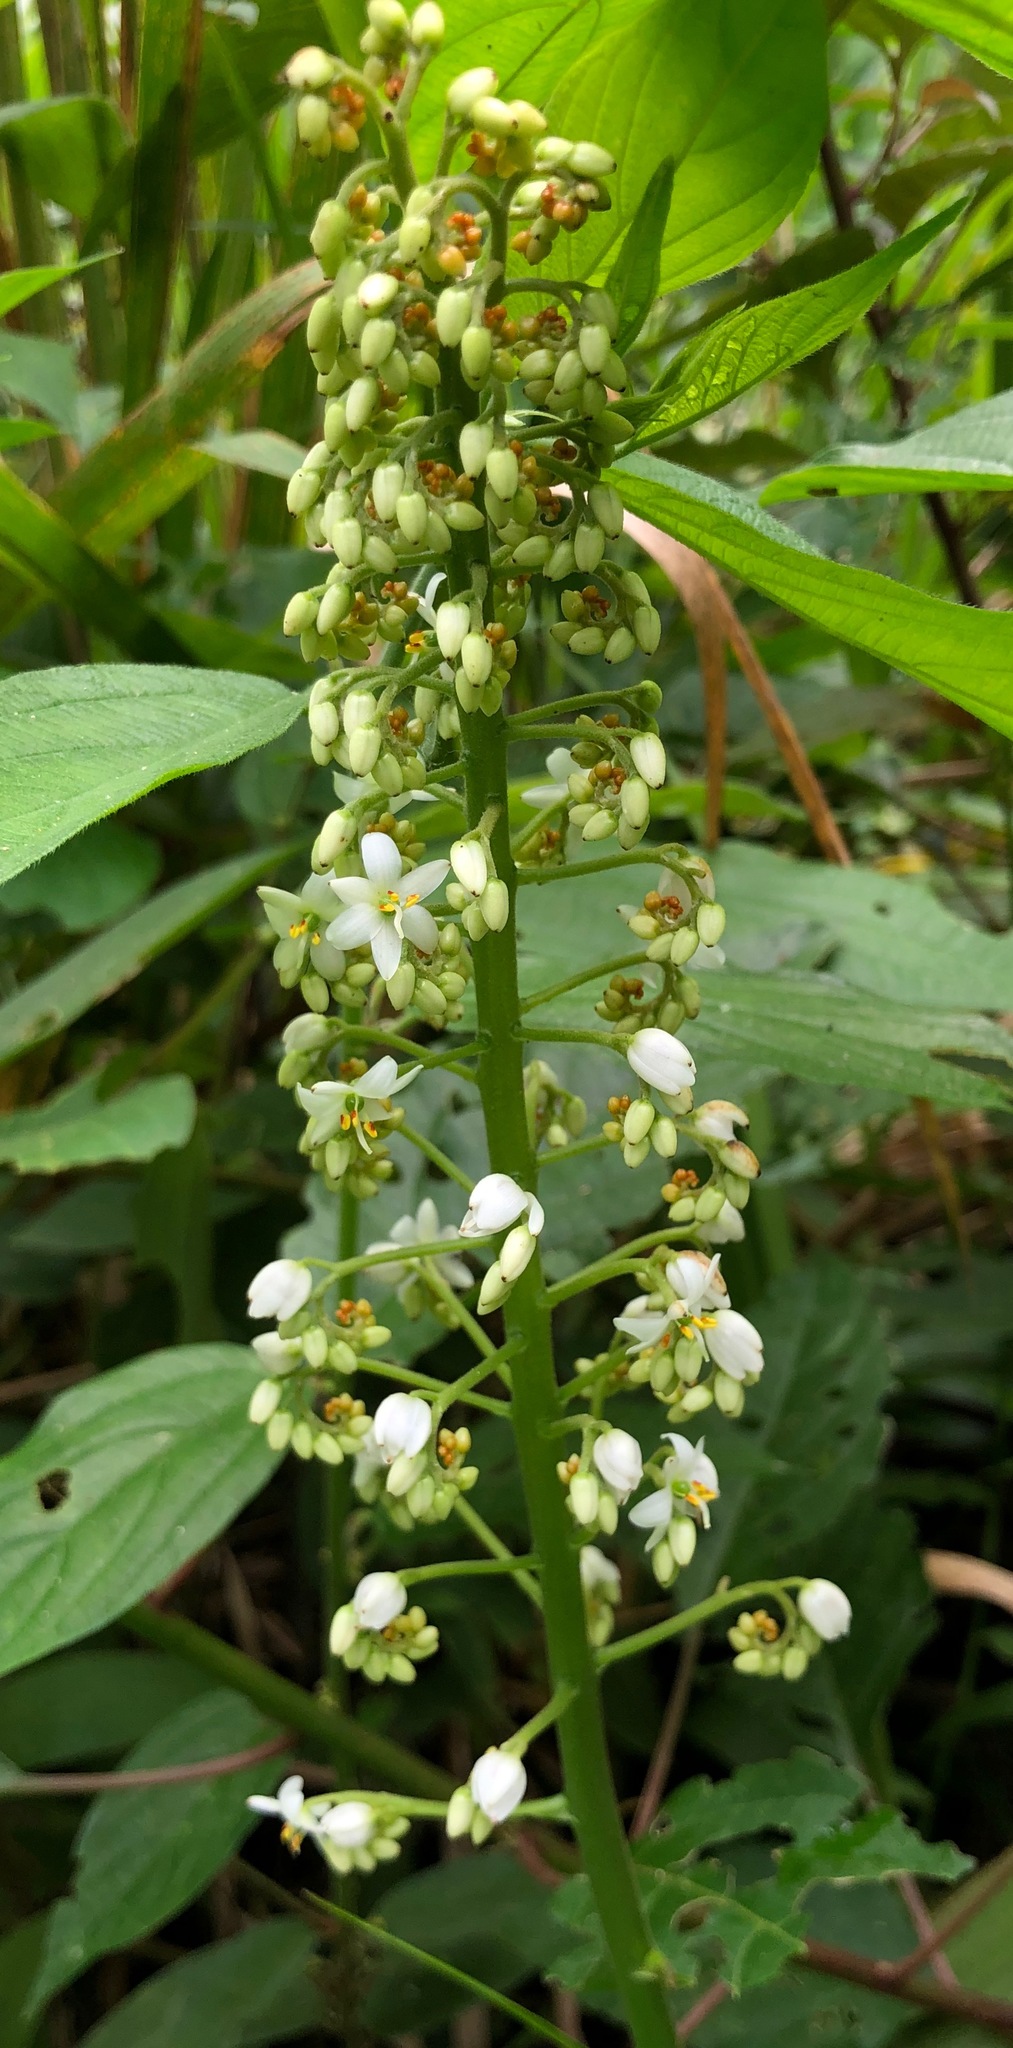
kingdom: Plantae
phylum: Tracheophyta
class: Liliopsida
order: Commelinales
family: Haemodoraceae
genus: Xiphidium
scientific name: Xiphidium caeruleum
